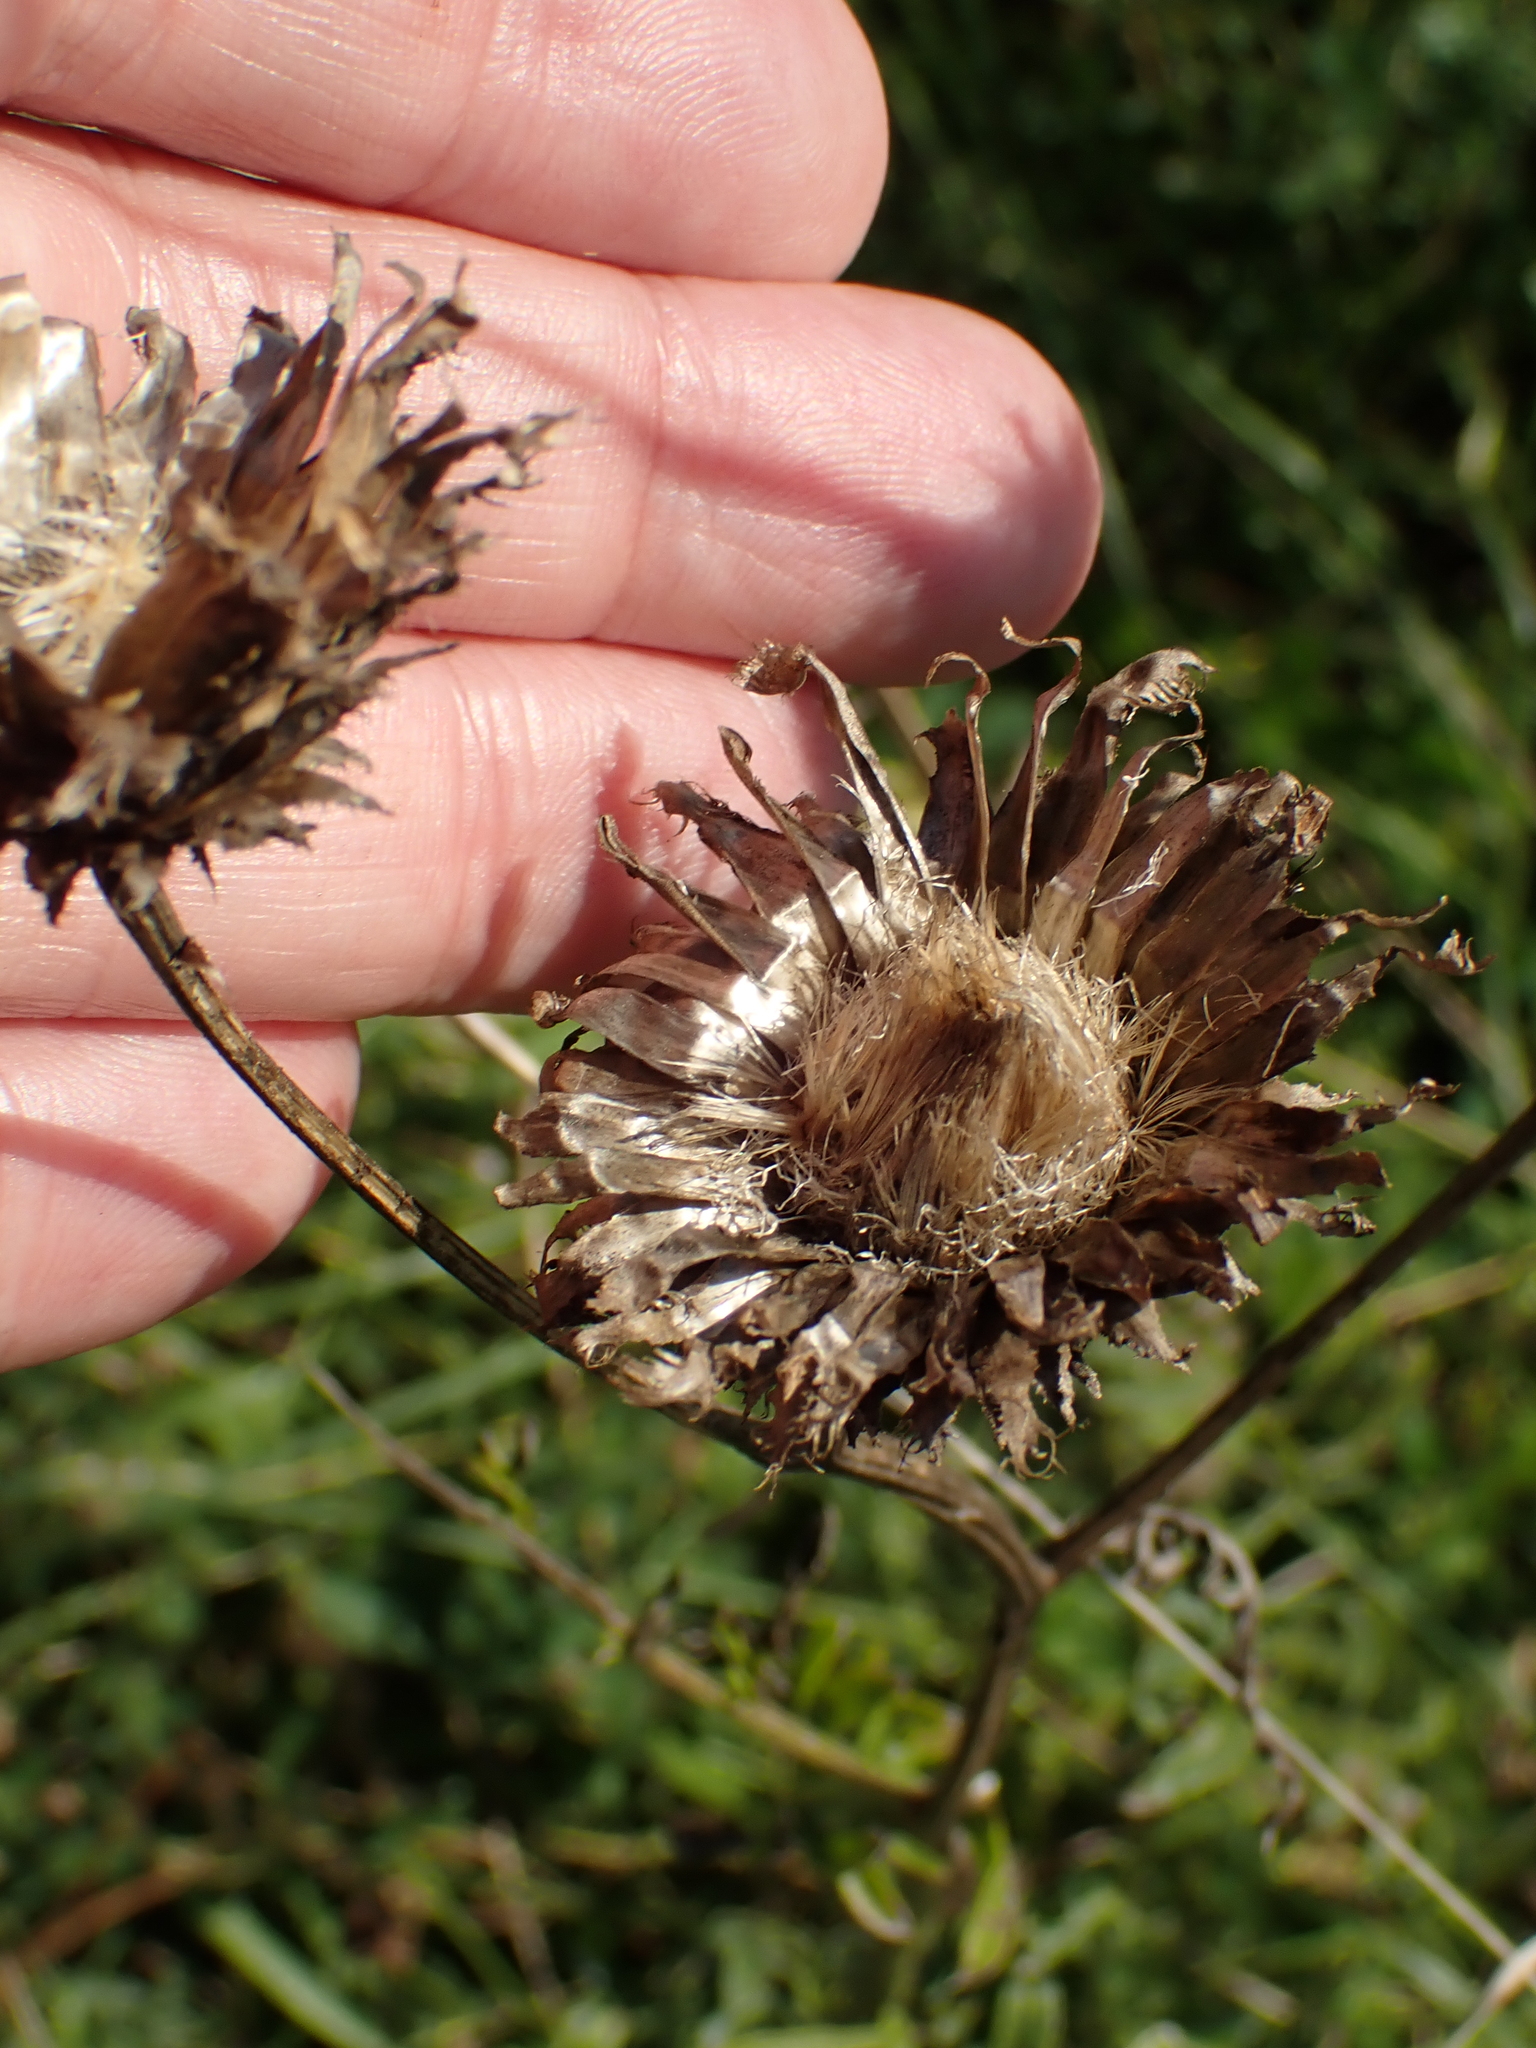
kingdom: Plantae
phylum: Tracheophyta
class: Magnoliopsida
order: Asterales
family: Asteraceae
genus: Centaurea
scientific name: Centaurea scabiosa
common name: Greater knapweed
